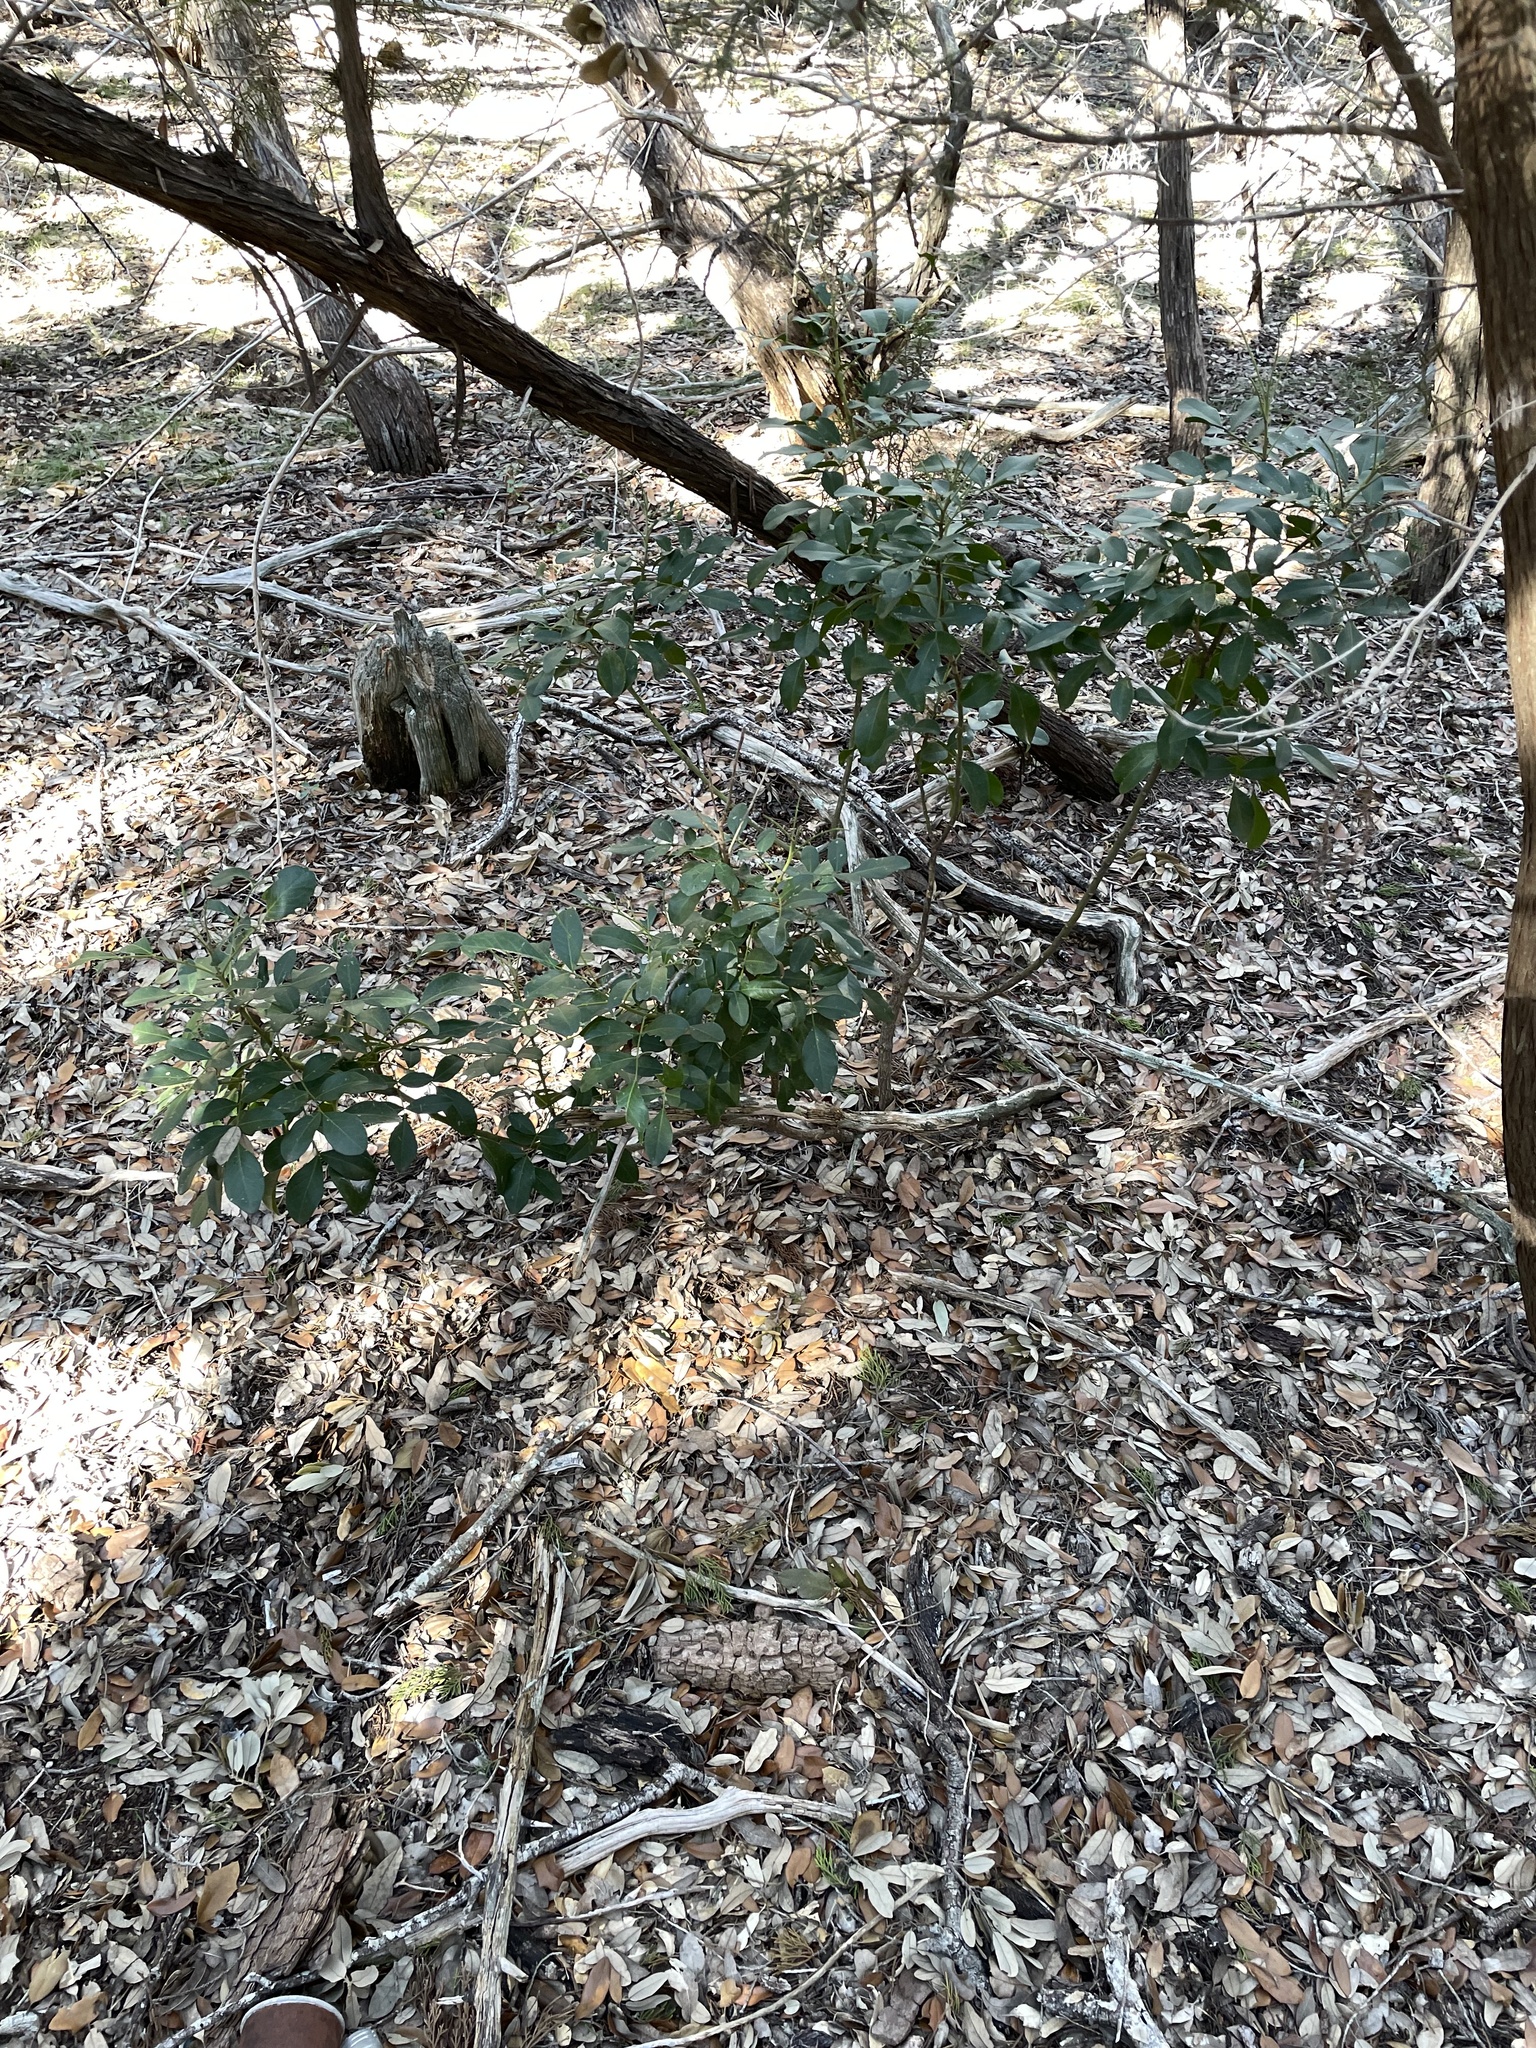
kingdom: Plantae
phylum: Tracheophyta
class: Magnoliopsida
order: Fabales
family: Fabaceae
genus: Dermatophyllum
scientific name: Dermatophyllum secundiflorum
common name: Texas-mountain-laurel
